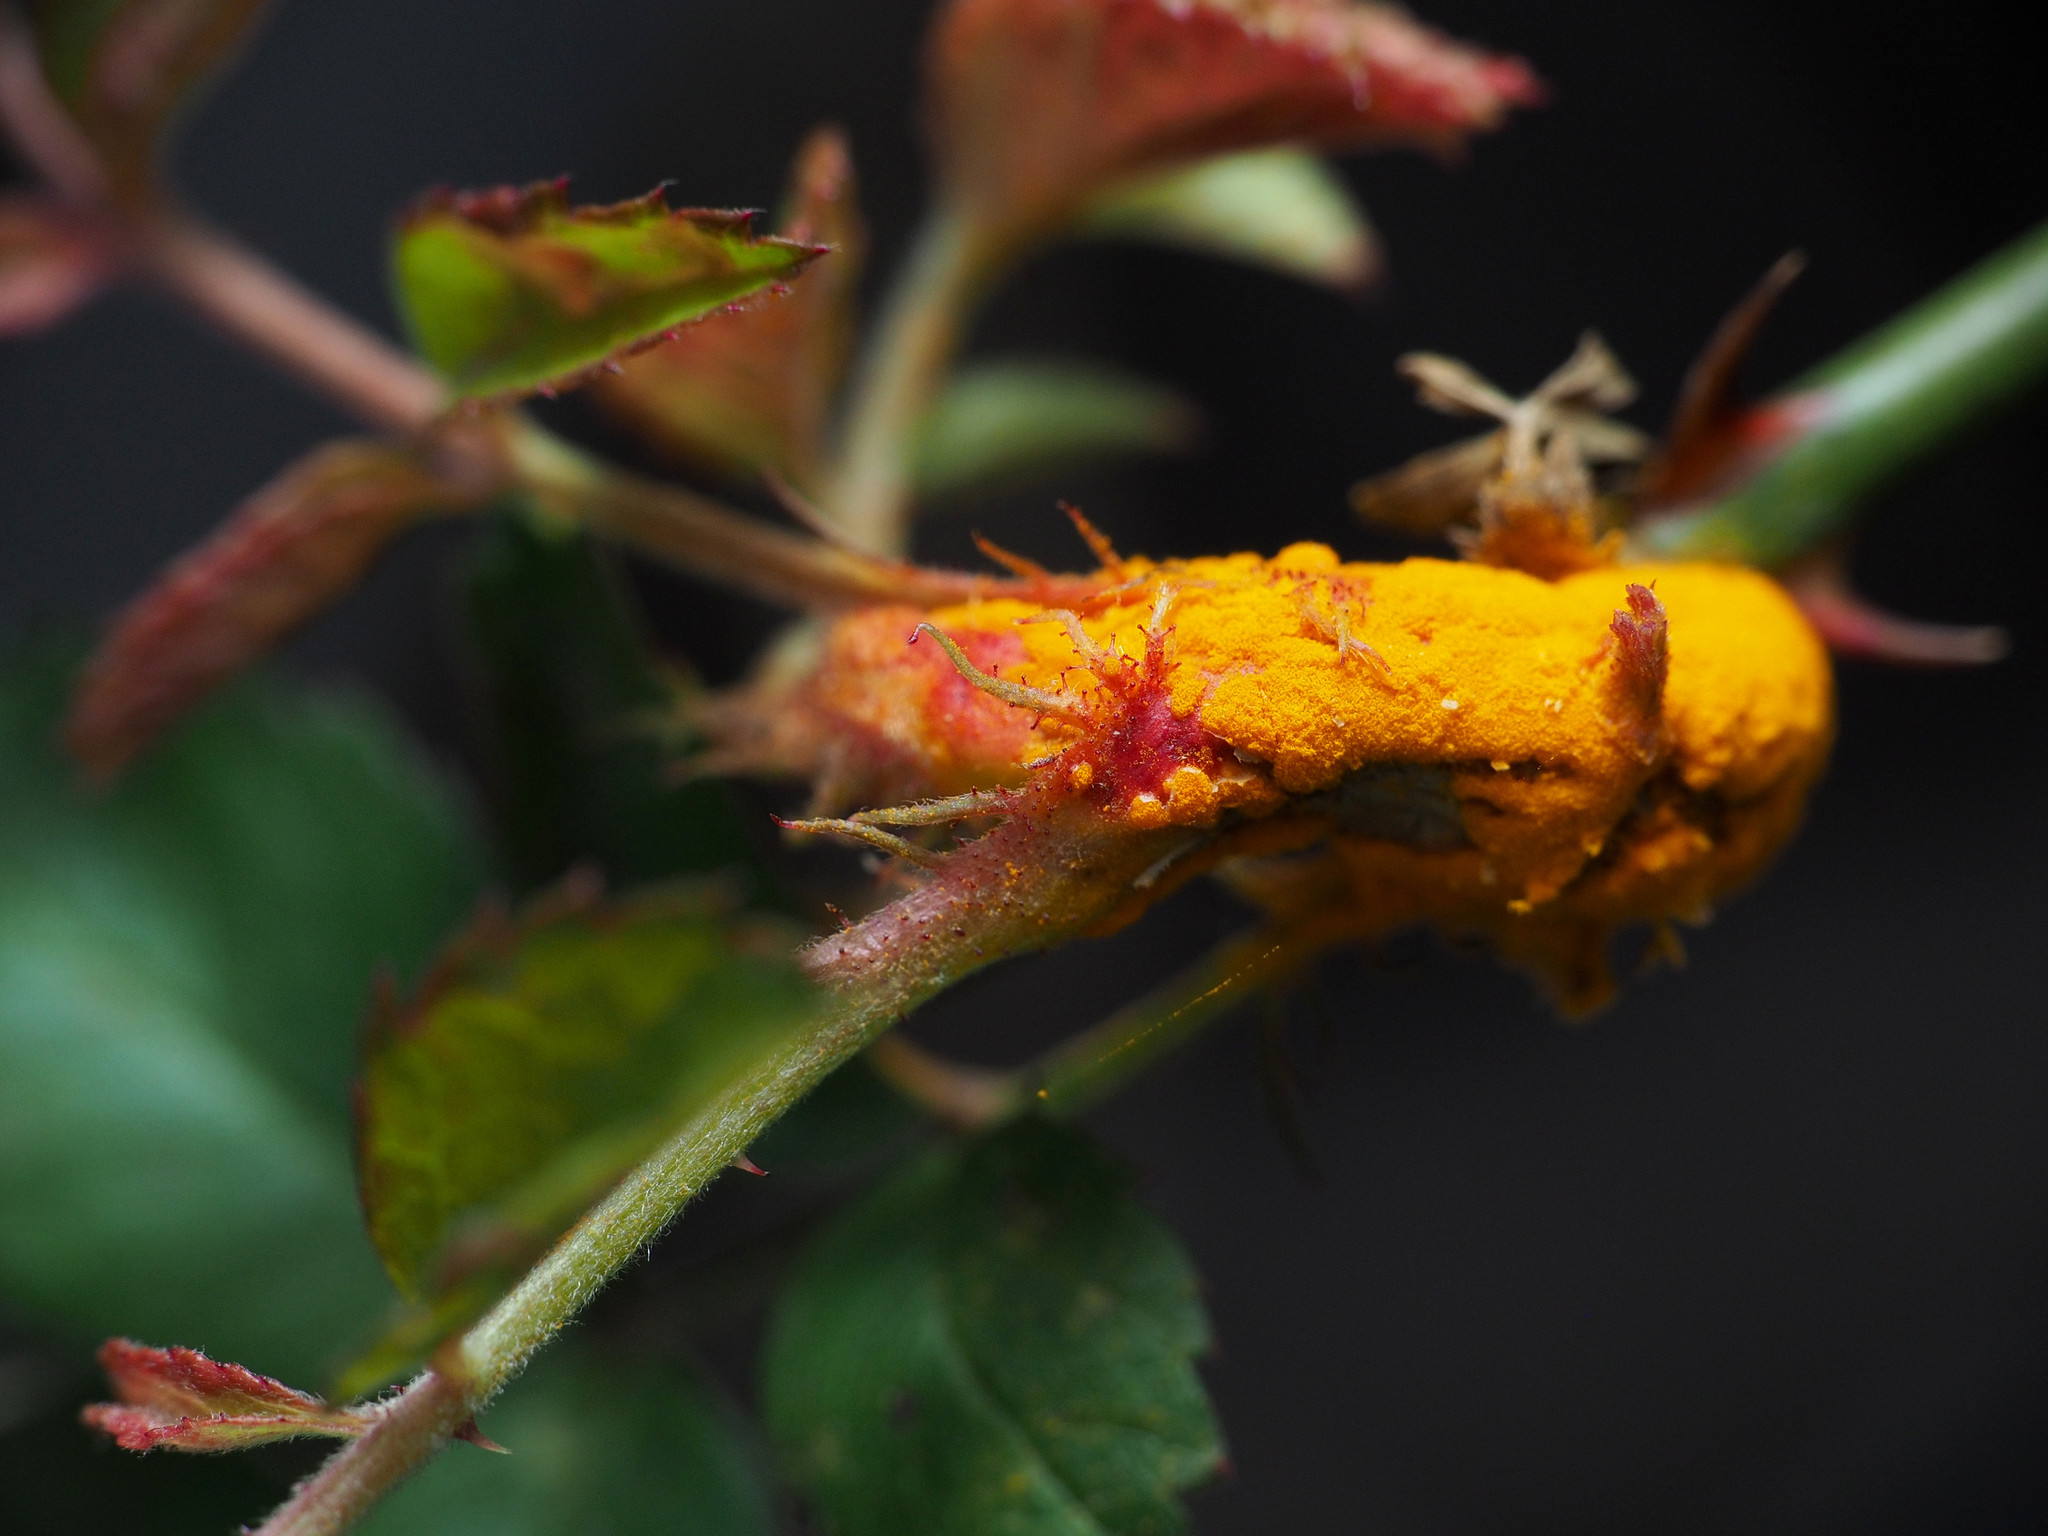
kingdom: Fungi
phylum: Basidiomycota
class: Pucciniomycetes
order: Pucciniales
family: Phragmidiaceae
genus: Phragmidium
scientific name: Phragmidium rosae-multiflorae
